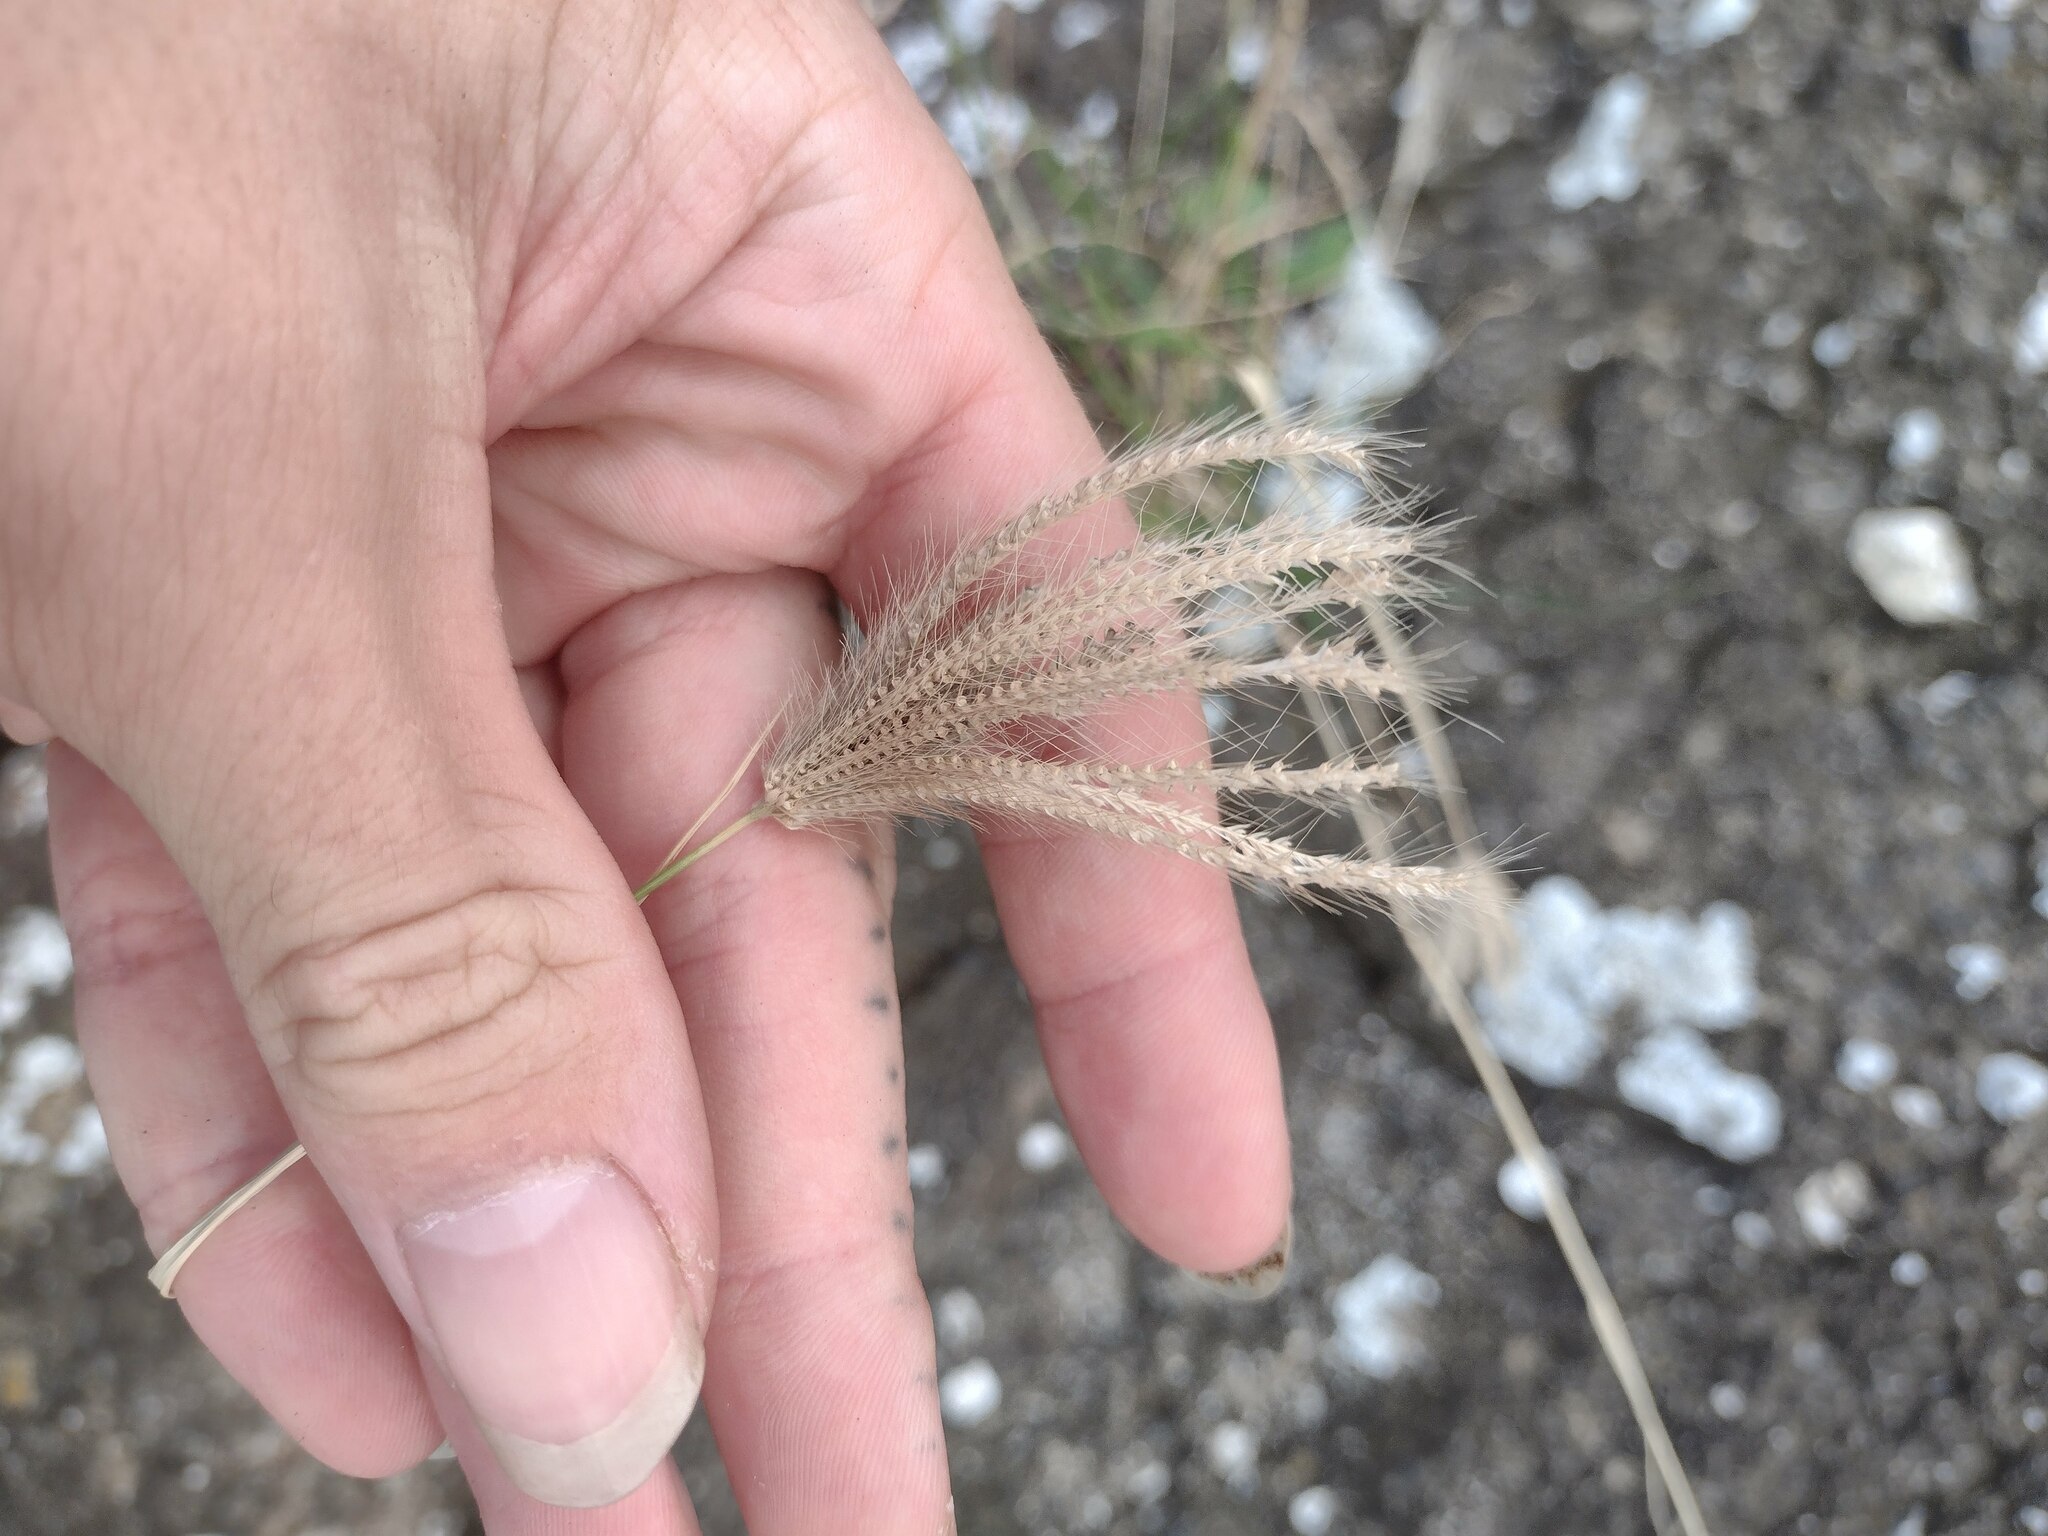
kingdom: Plantae
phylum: Tracheophyta
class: Liliopsida
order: Poales
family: Poaceae
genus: Chloris
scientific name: Chloris barbata
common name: Swollen fingergrass
